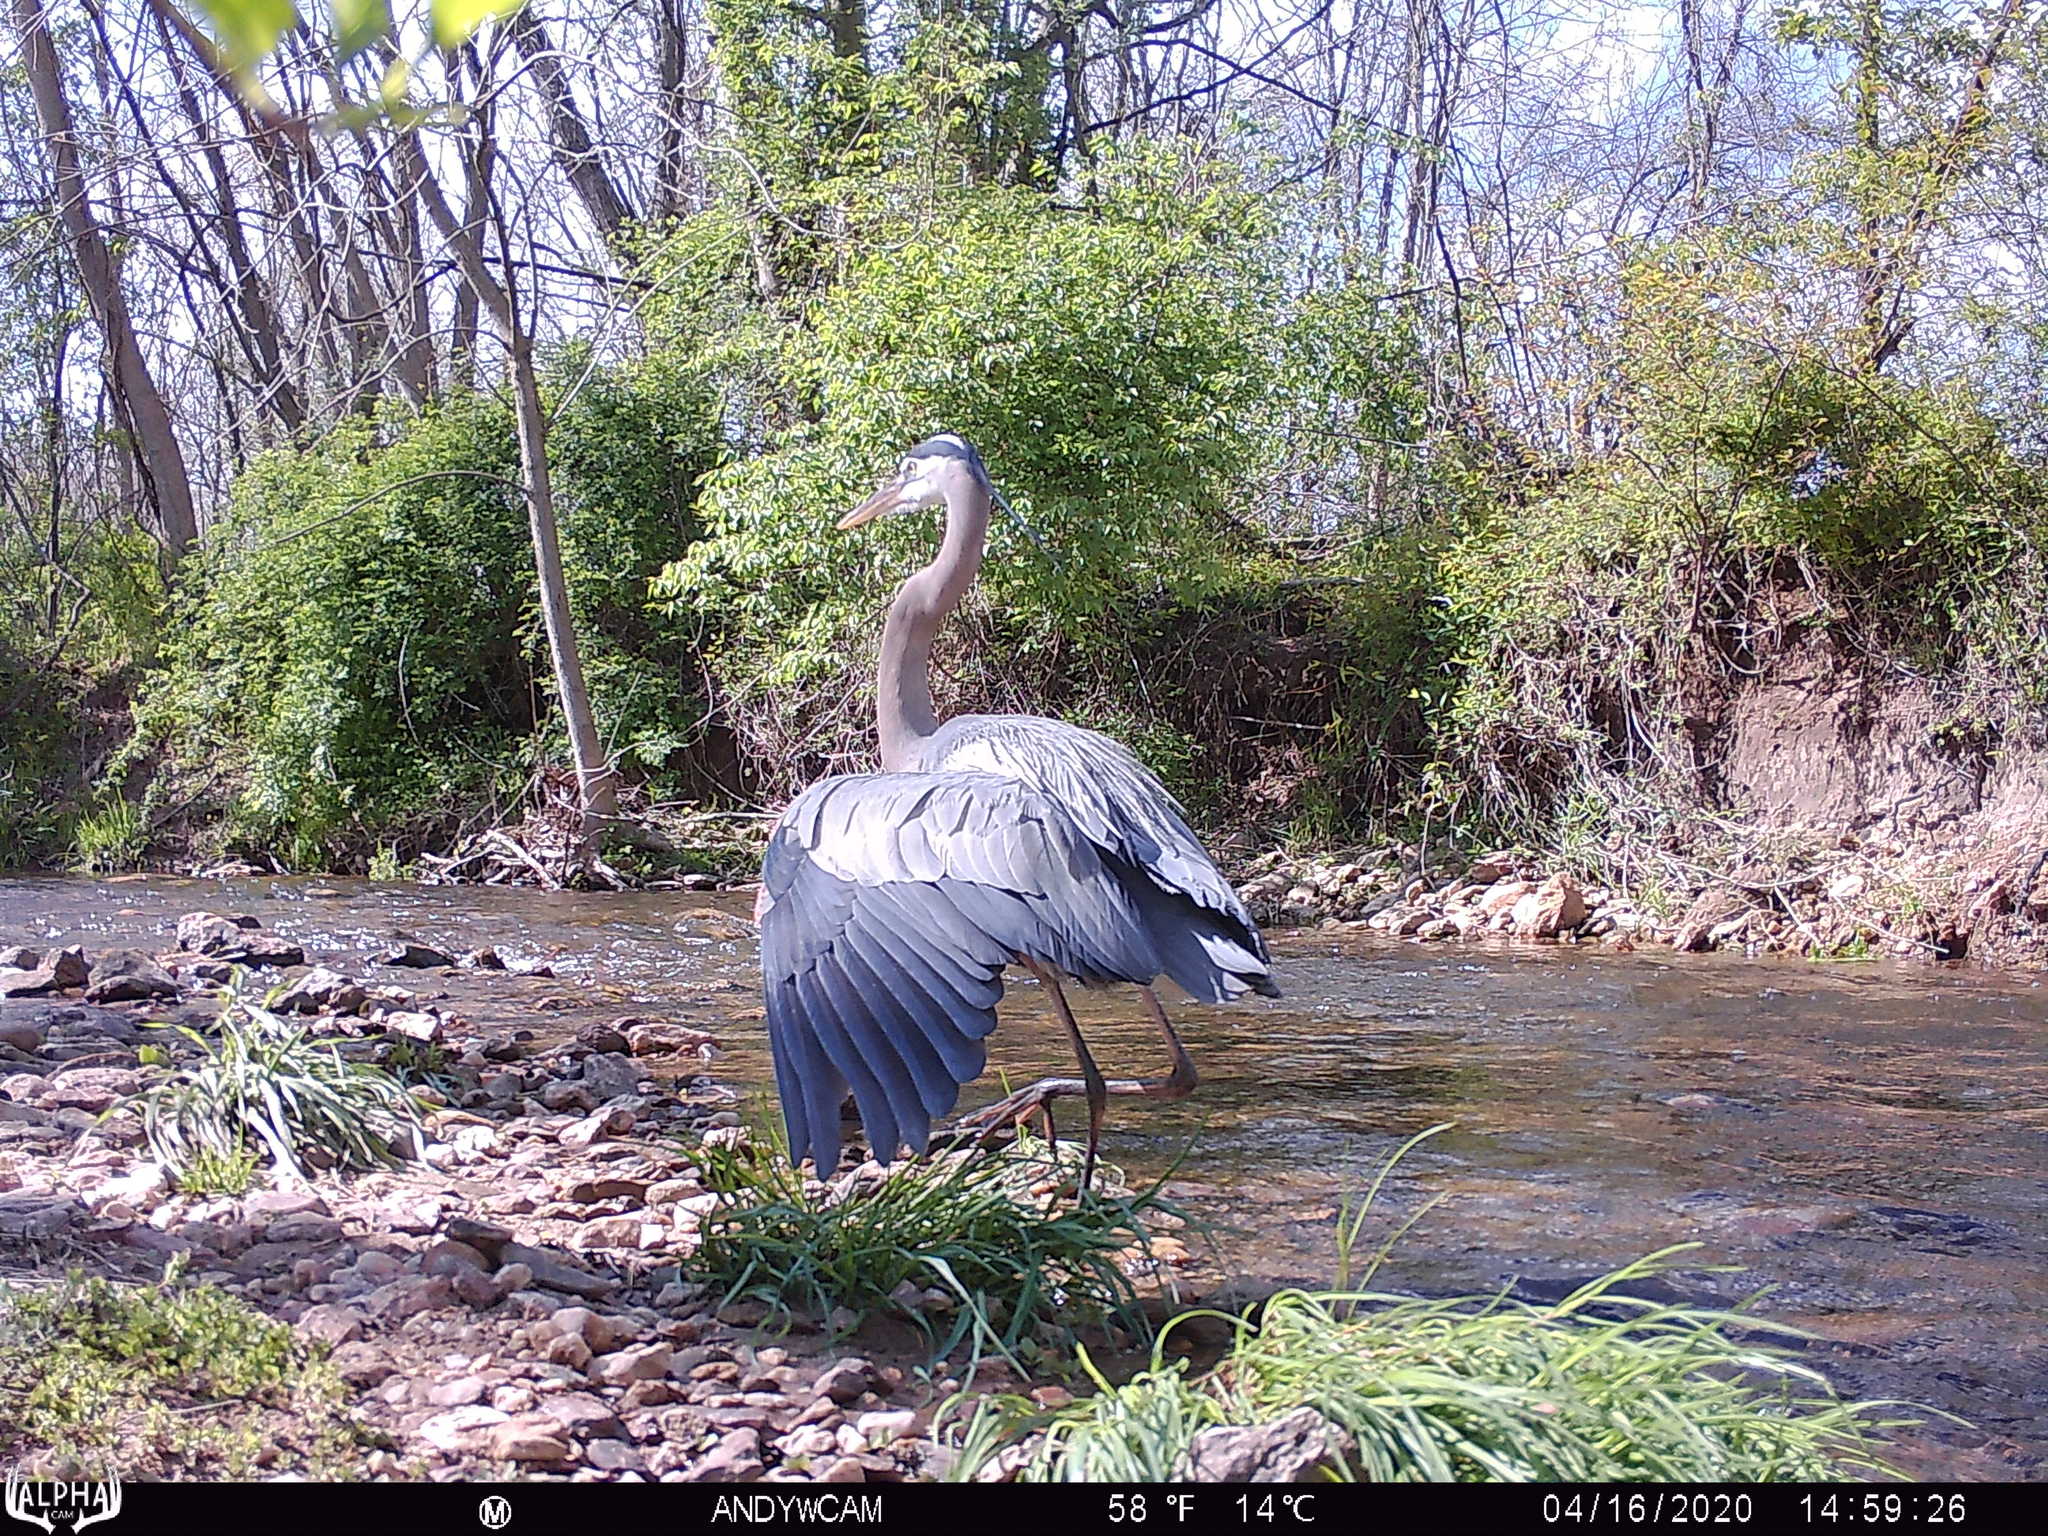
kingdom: Animalia
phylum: Chordata
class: Aves
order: Pelecaniformes
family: Ardeidae
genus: Ardea
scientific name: Ardea herodias
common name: Great blue heron
